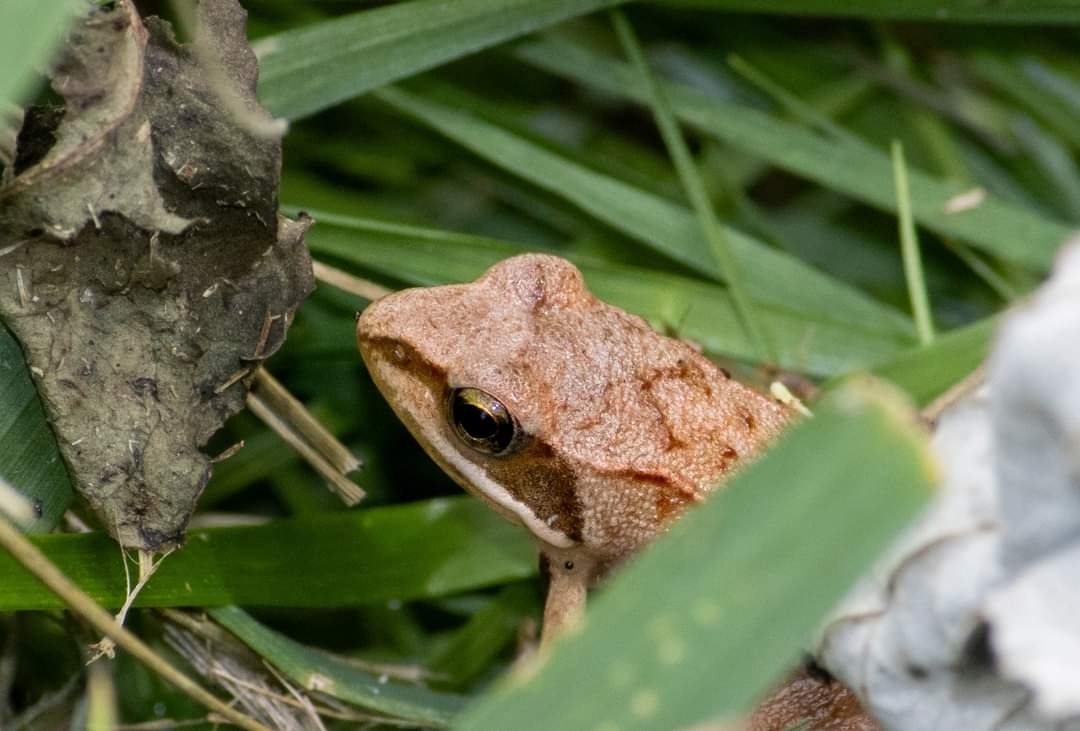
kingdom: Animalia
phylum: Chordata
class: Amphibia
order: Anura
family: Ranidae
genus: Rana
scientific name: Rana dalmatina
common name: Agile frog
